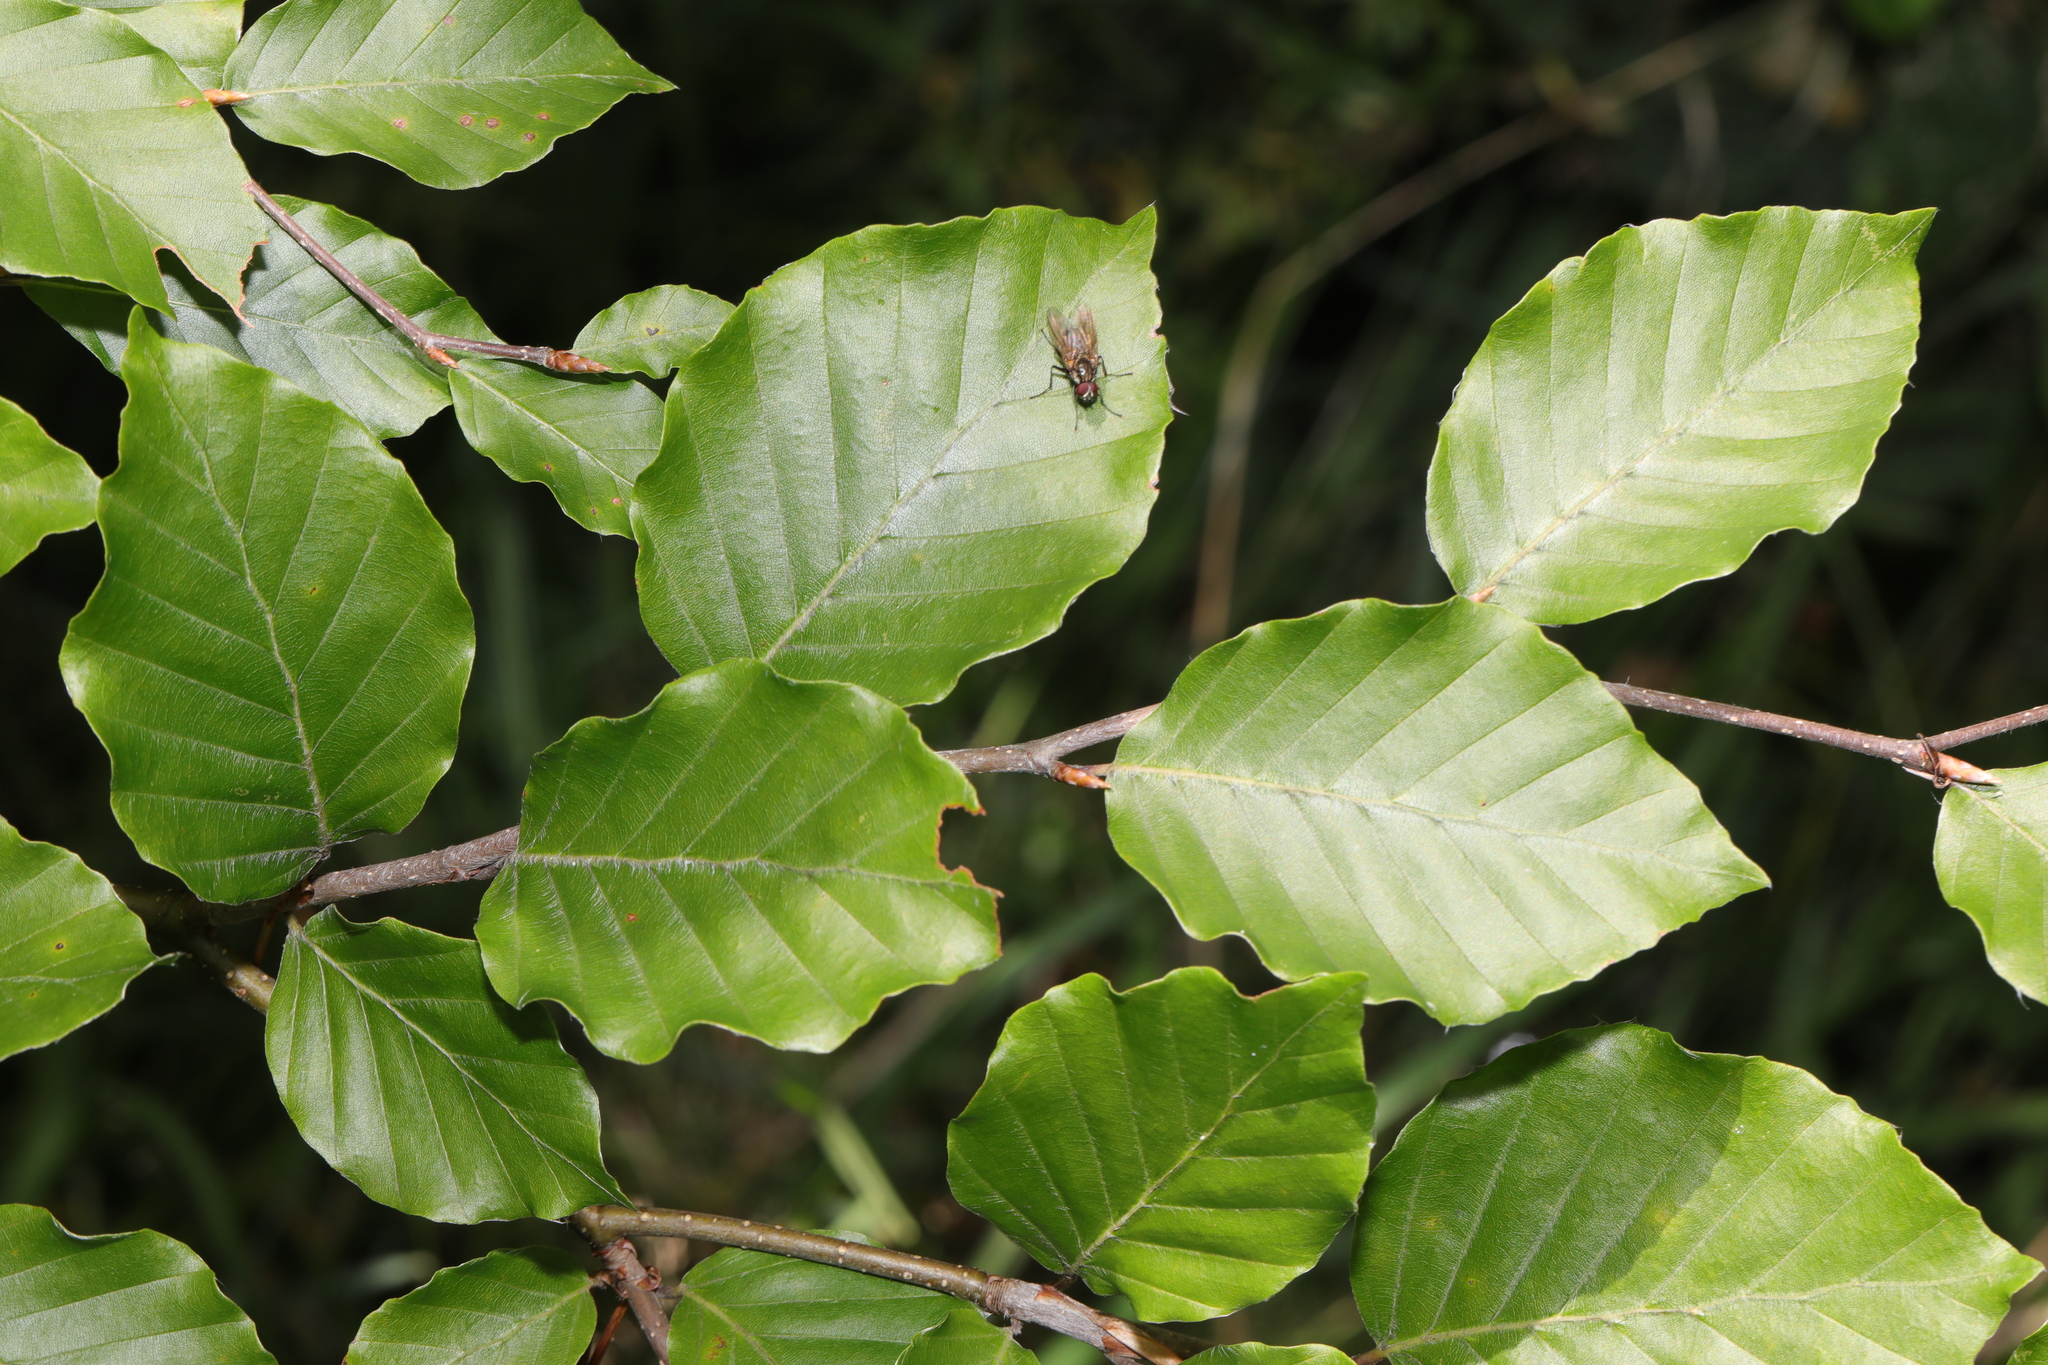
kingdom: Plantae
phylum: Tracheophyta
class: Magnoliopsida
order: Fagales
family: Fagaceae
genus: Fagus
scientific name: Fagus sylvatica
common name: Beech
